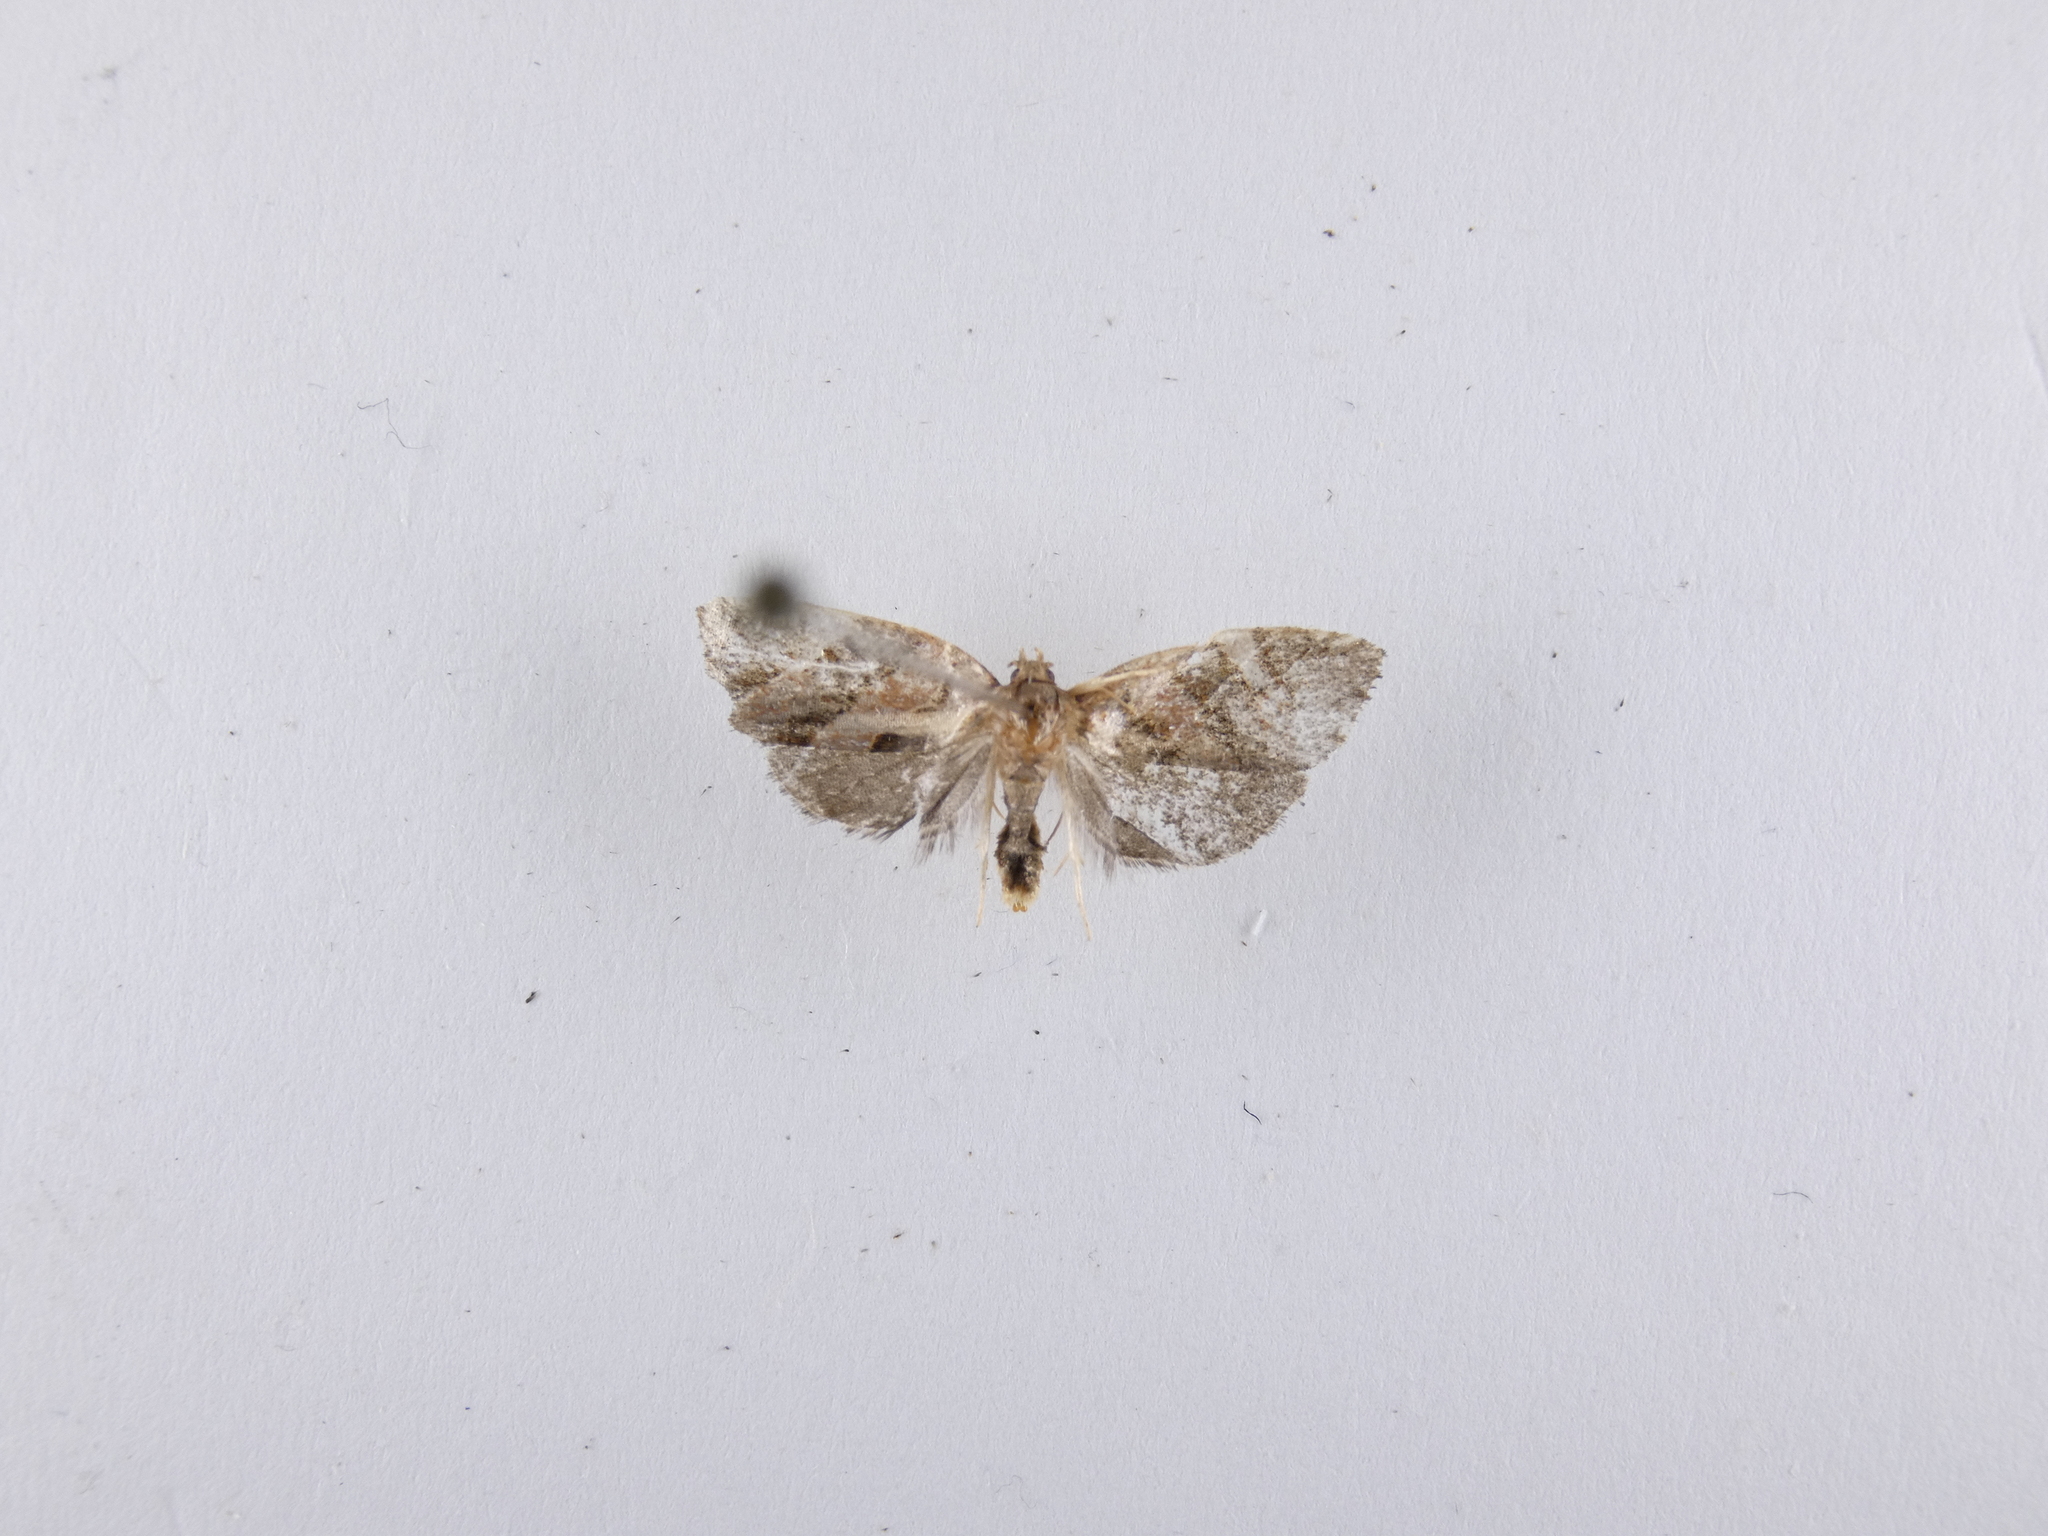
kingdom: Animalia
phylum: Arthropoda
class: Insecta
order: Lepidoptera
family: Tortricidae
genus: Ecclitica
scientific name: Ecclitica torogramma
